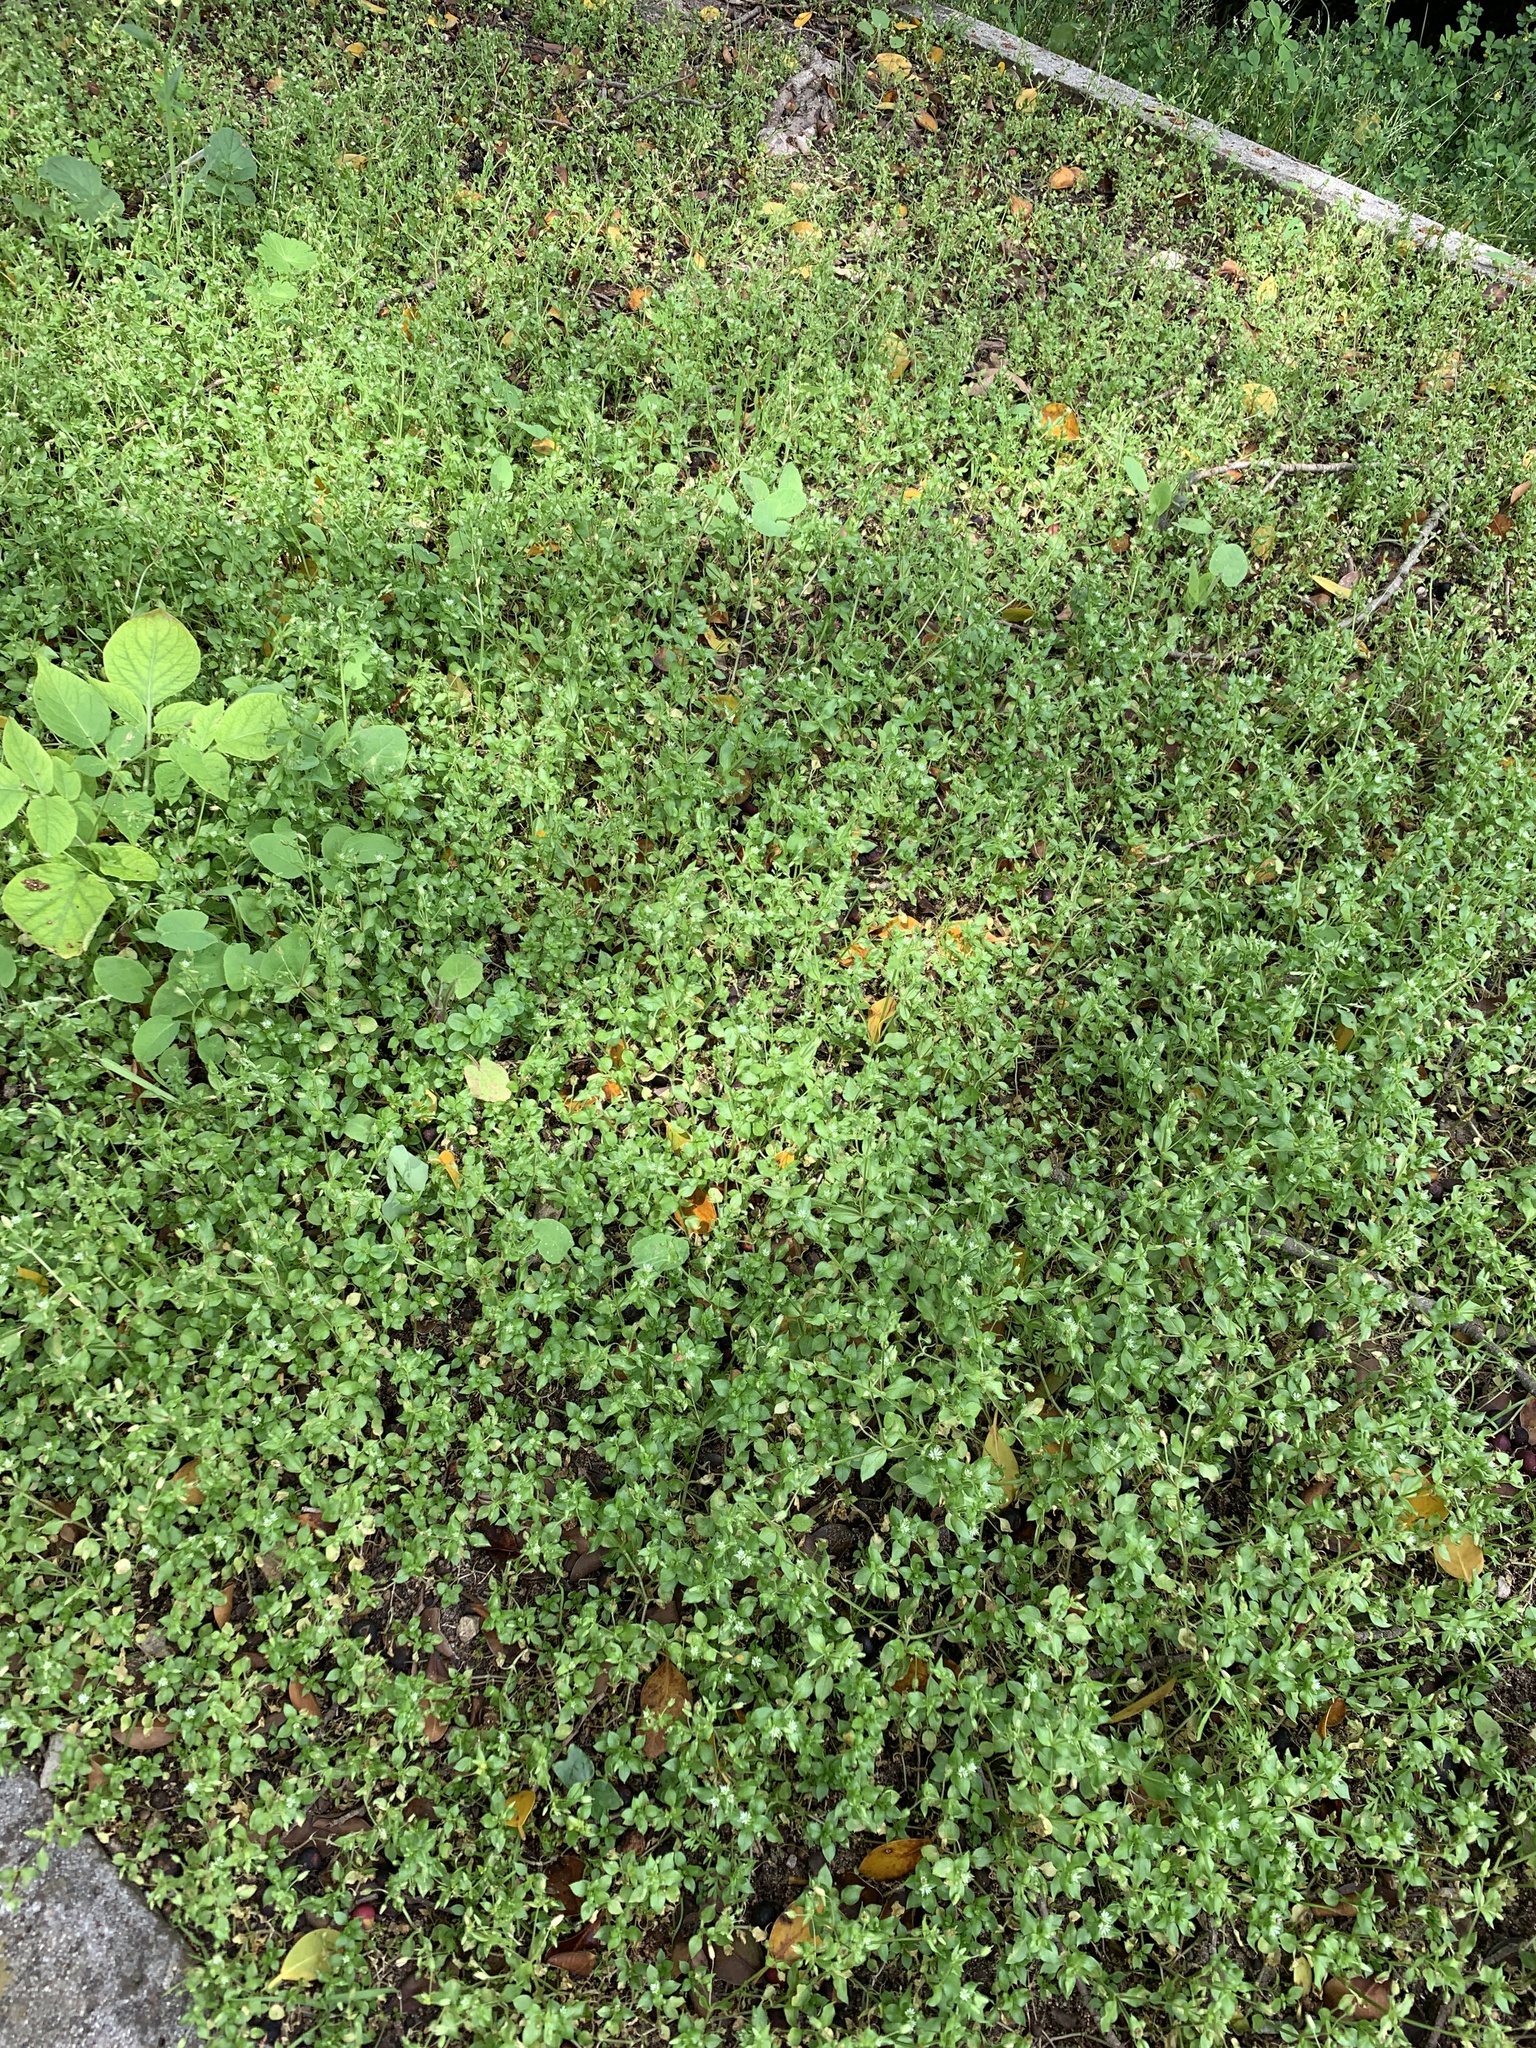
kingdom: Plantae
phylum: Tracheophyta
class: Magnoliopsida
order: Caryophyllales
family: Caryophyllaceae
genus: Stellaria
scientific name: Stellaria media
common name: Common chickweed
